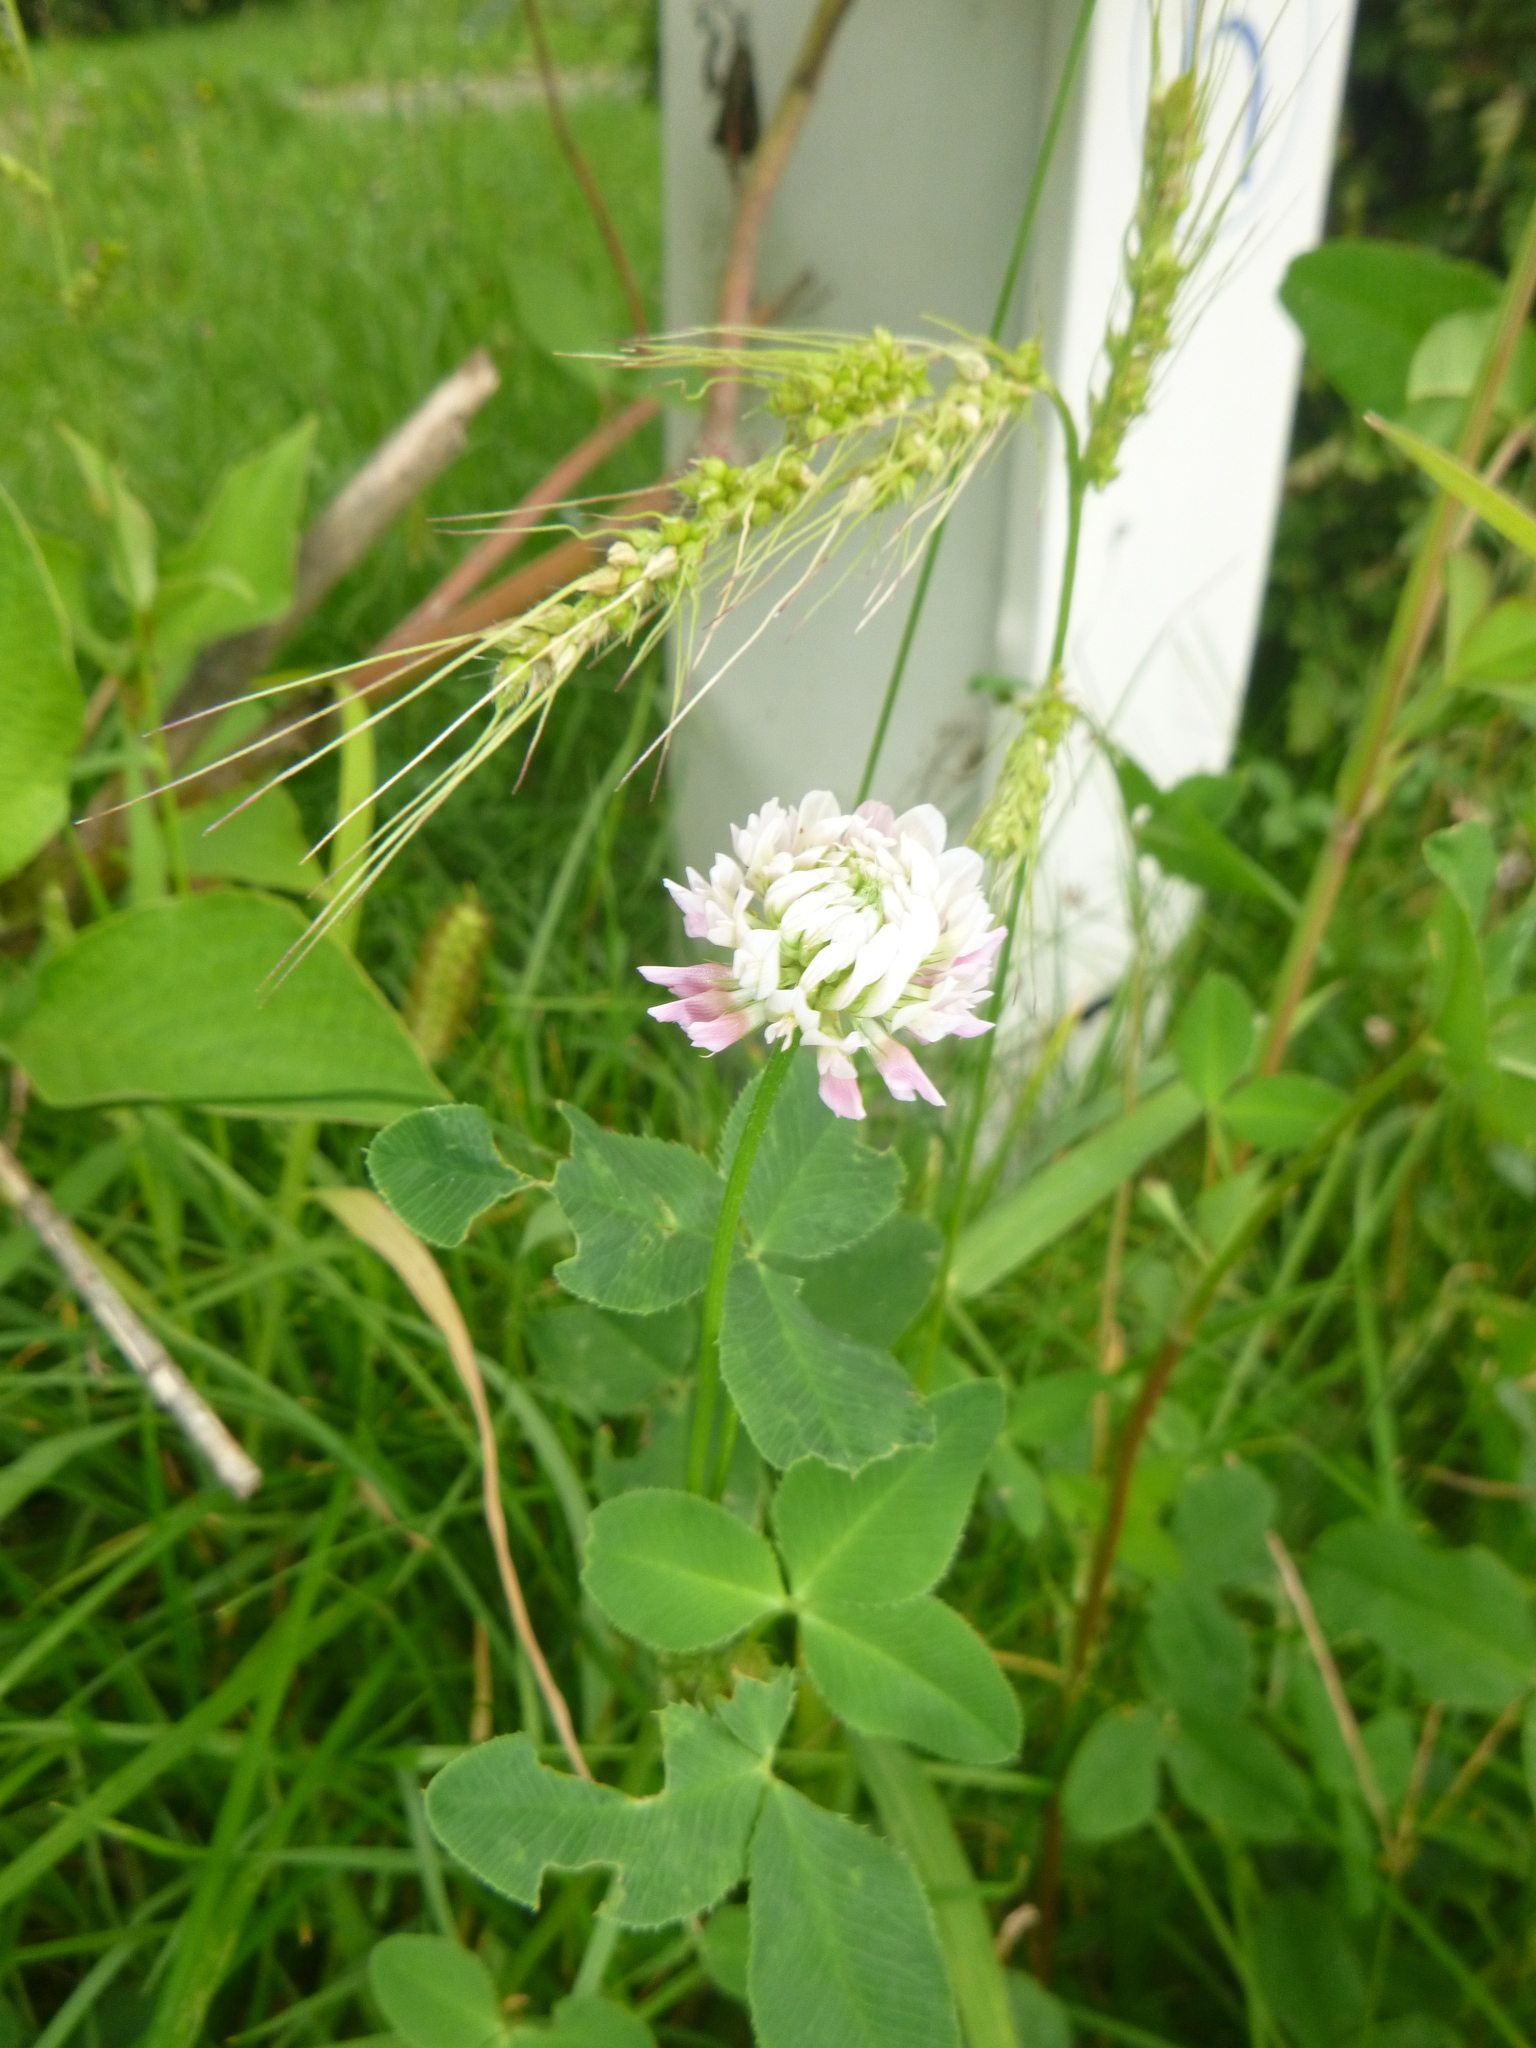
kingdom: Plantae
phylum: Tracheophyta
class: Liliopsida
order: Poales
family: Poaceae
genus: Echinochloa
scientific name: Echinochloa crus-galli
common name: Cockspur
